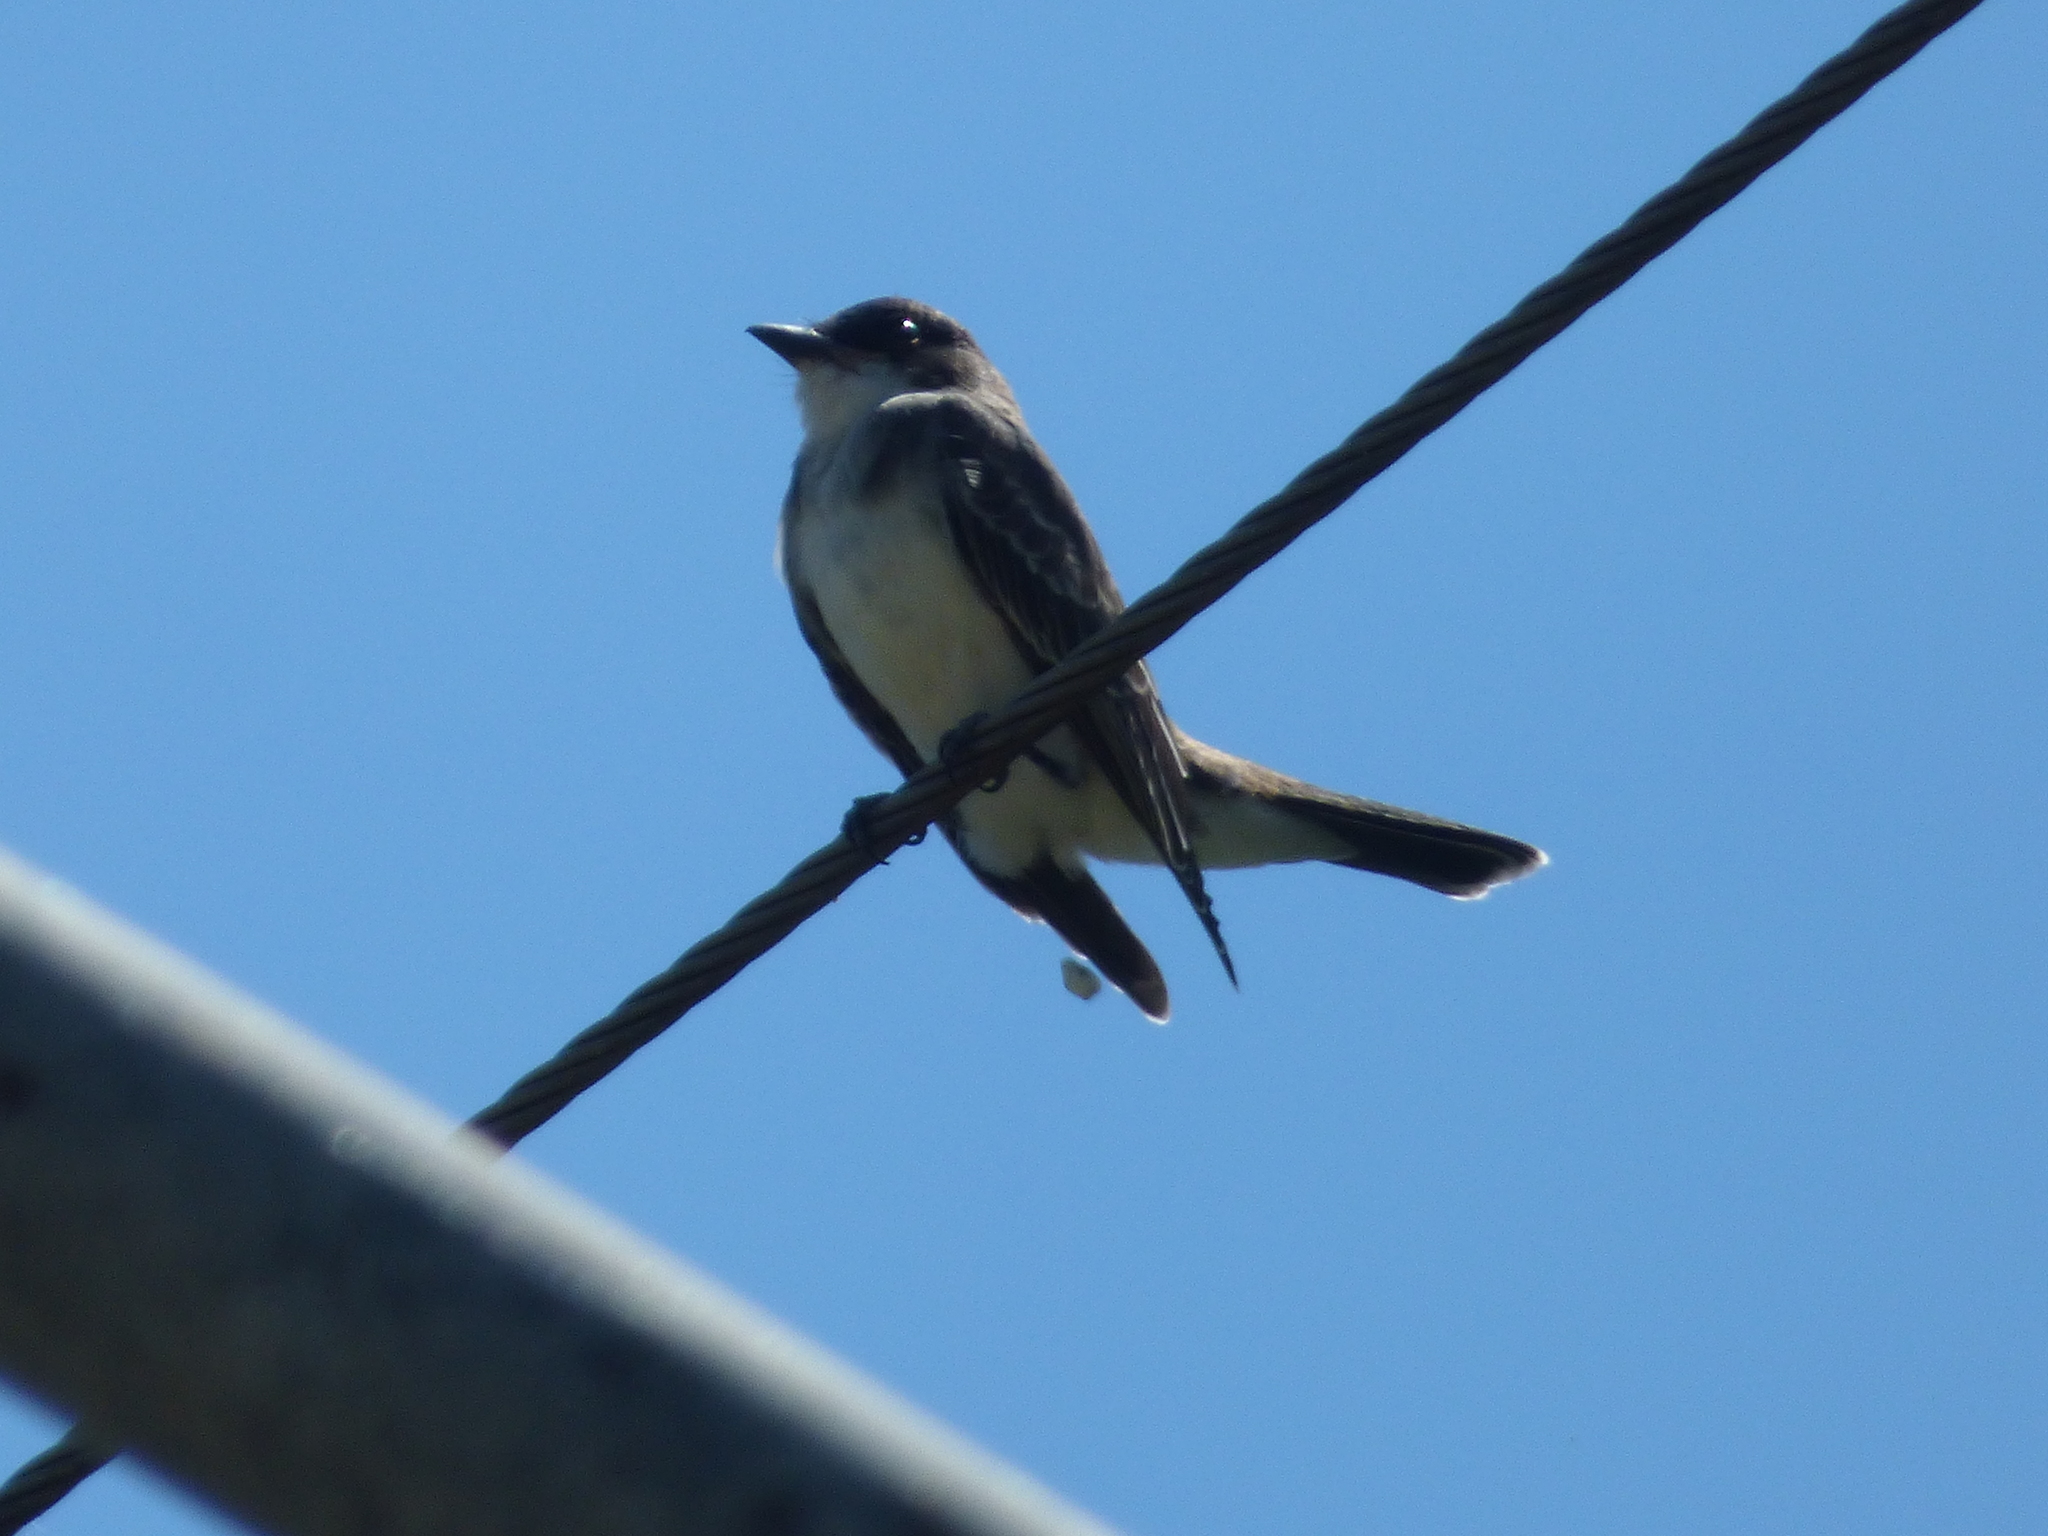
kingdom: Animalia
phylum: Chordata
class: Aves
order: Passeriformes
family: Tyrannidae
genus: Tyrannus
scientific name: Tyrannus tyrannus
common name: Eastern kingbird
